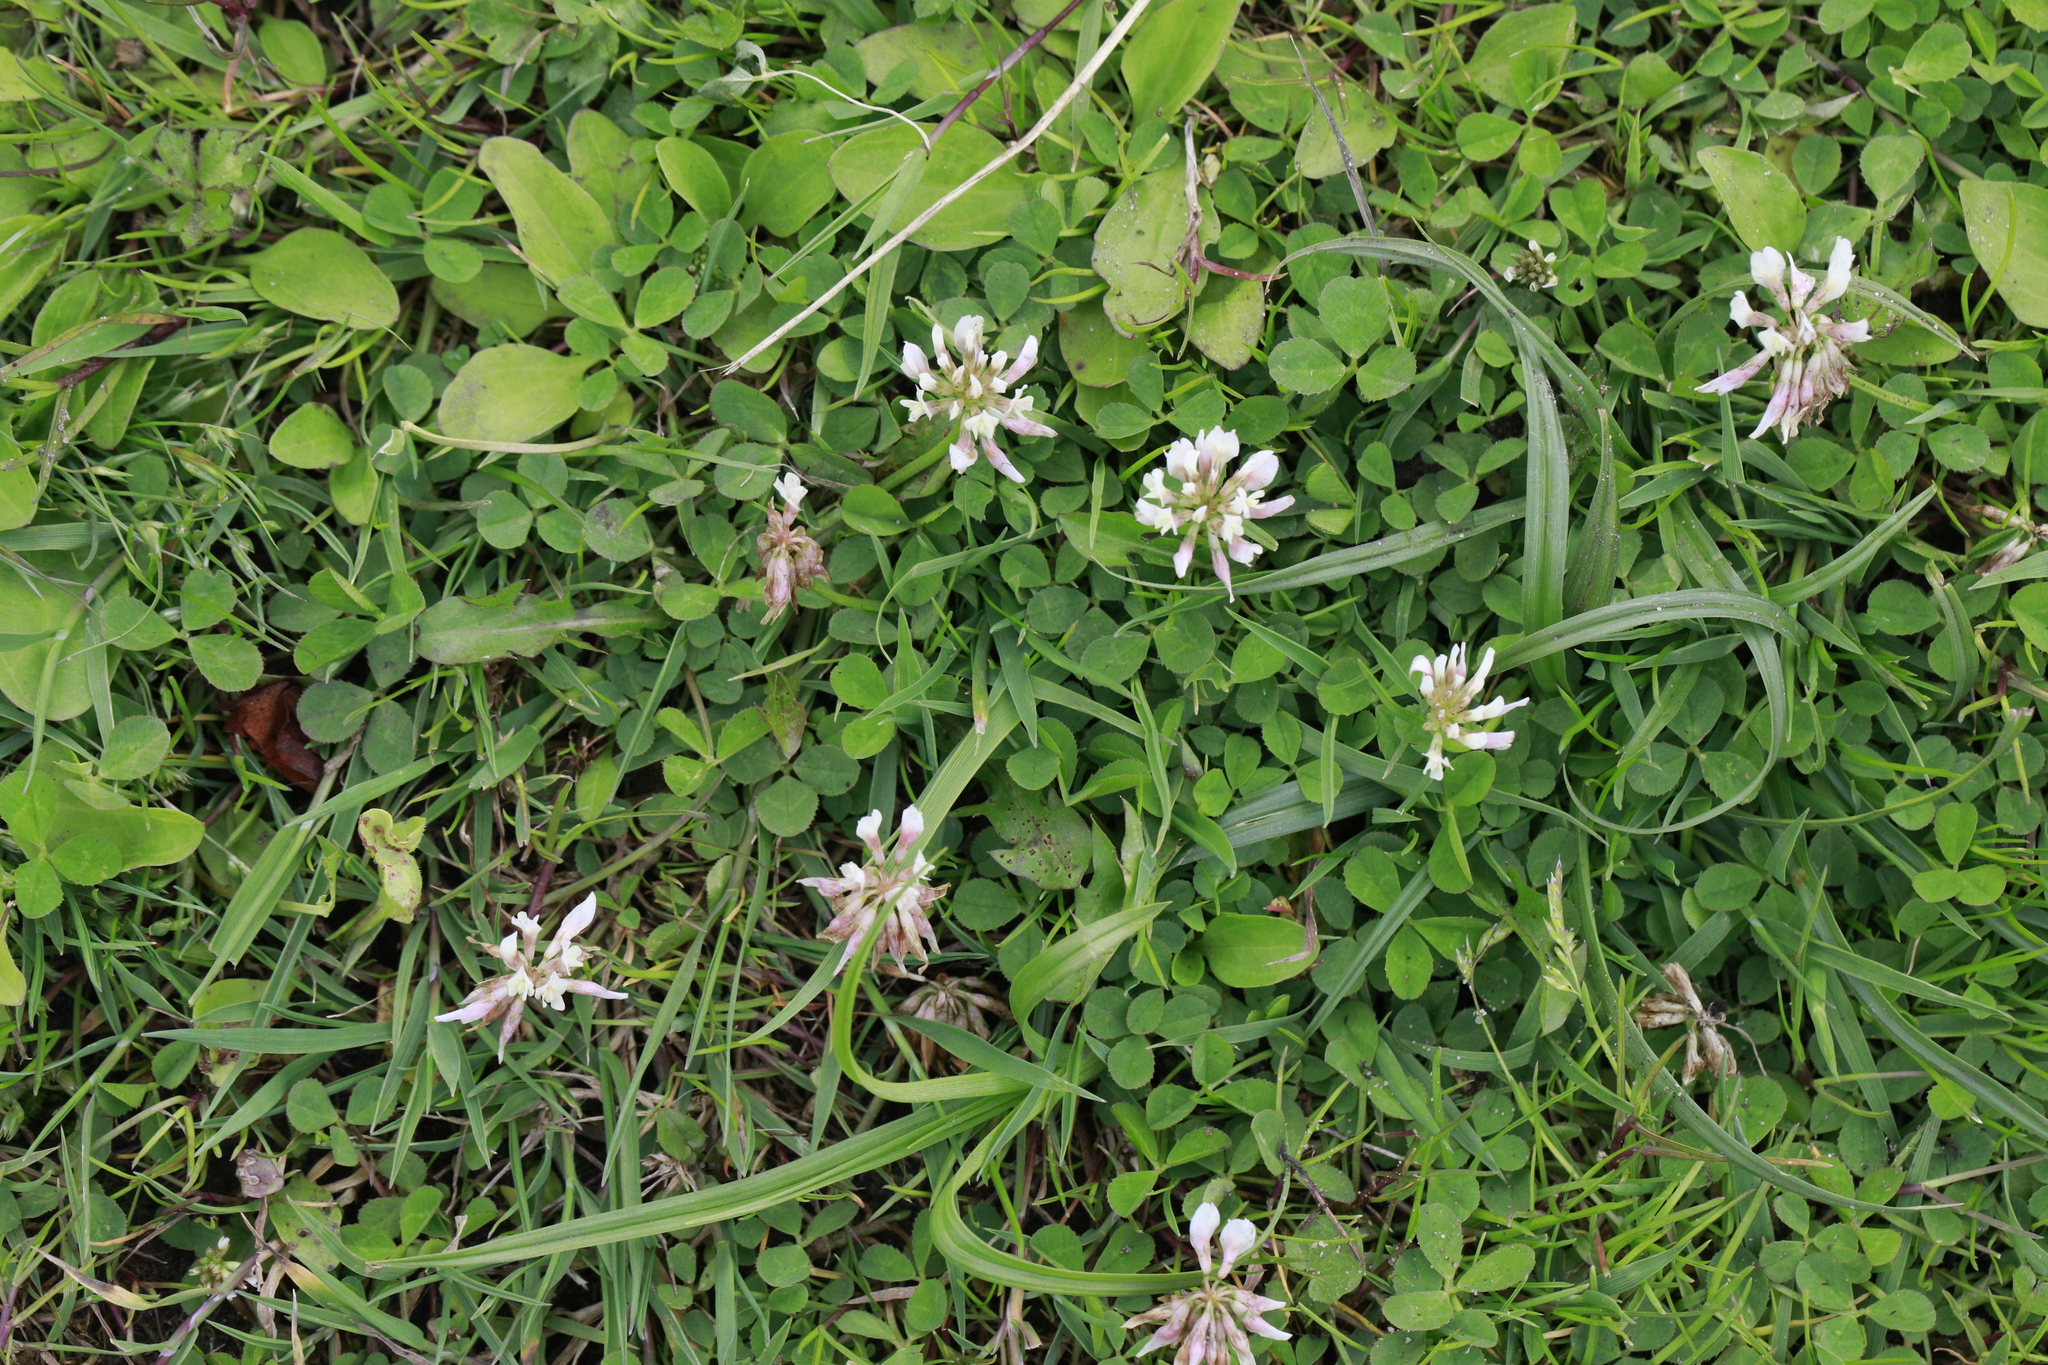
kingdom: Plantae
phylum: Tracheophyta
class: Magnoliopsida
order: Fabales
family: Fabaceae
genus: Trifolium
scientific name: Trifolium repens
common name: White clover
